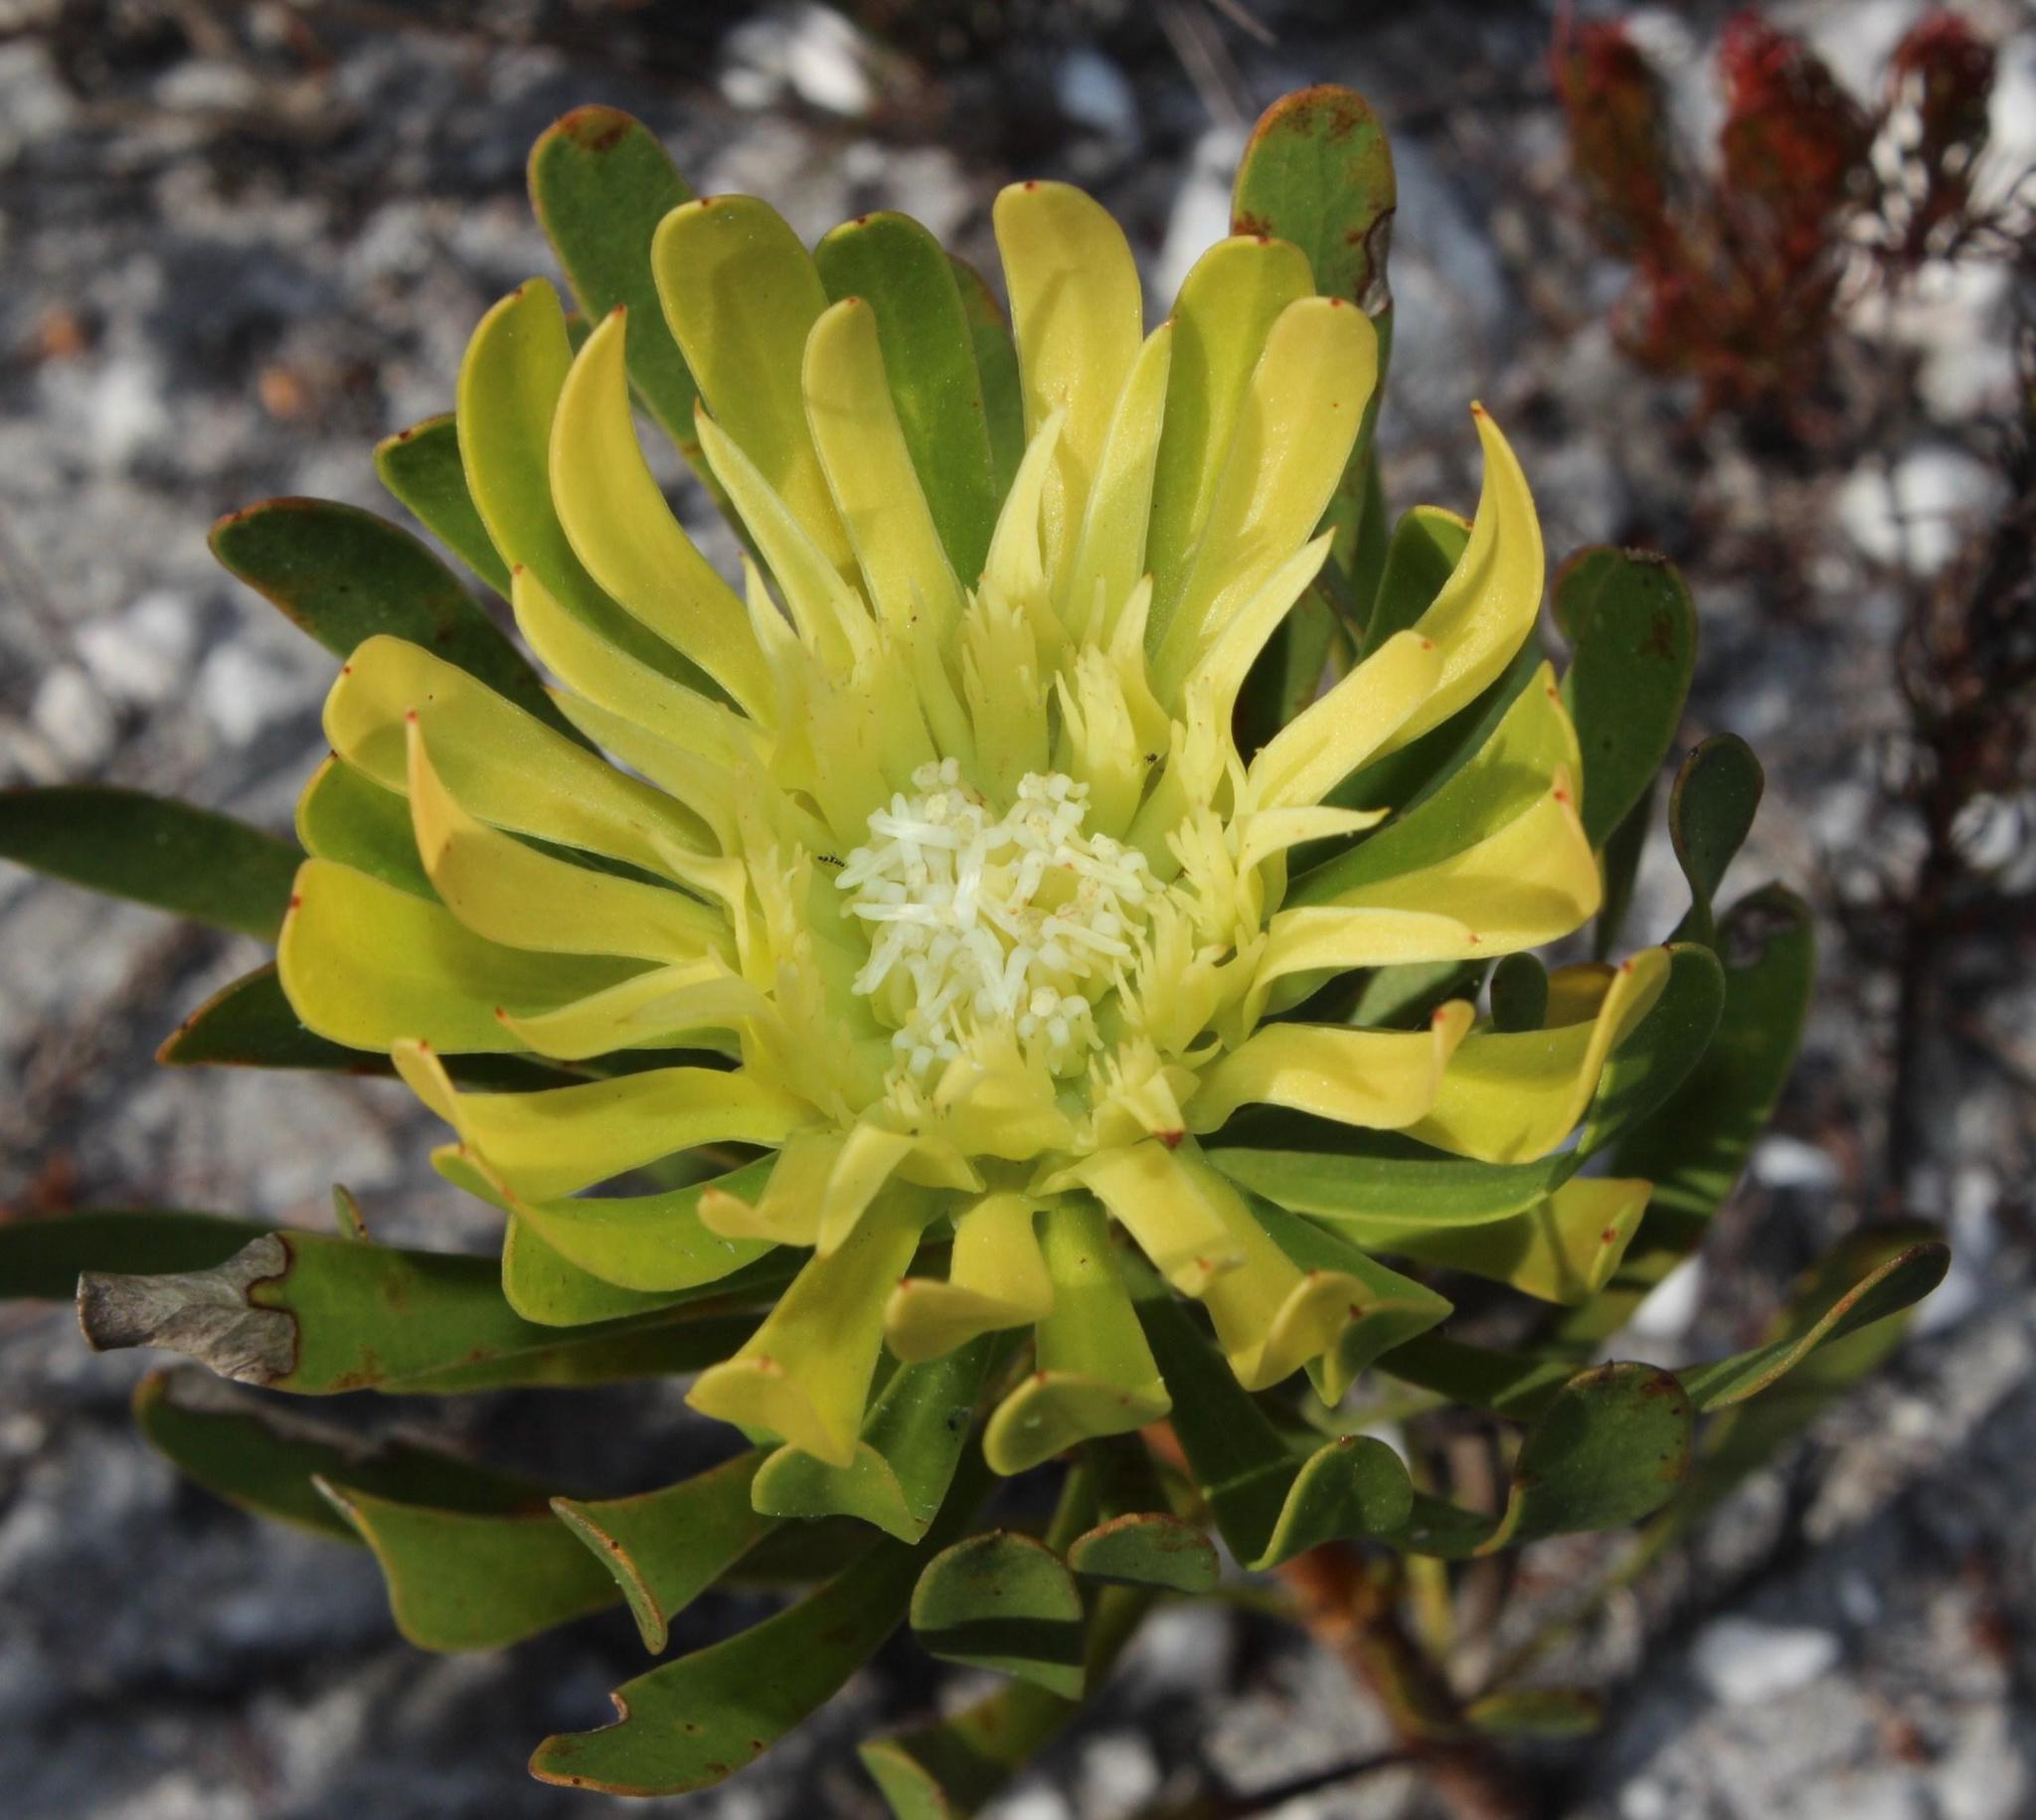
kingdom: Plantae
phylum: Tracheophyta
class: Magnoliopsida
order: Proteales
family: Proteaceae
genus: Aulax
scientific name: Aulax umbellata
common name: Broad-leaf featherbush
